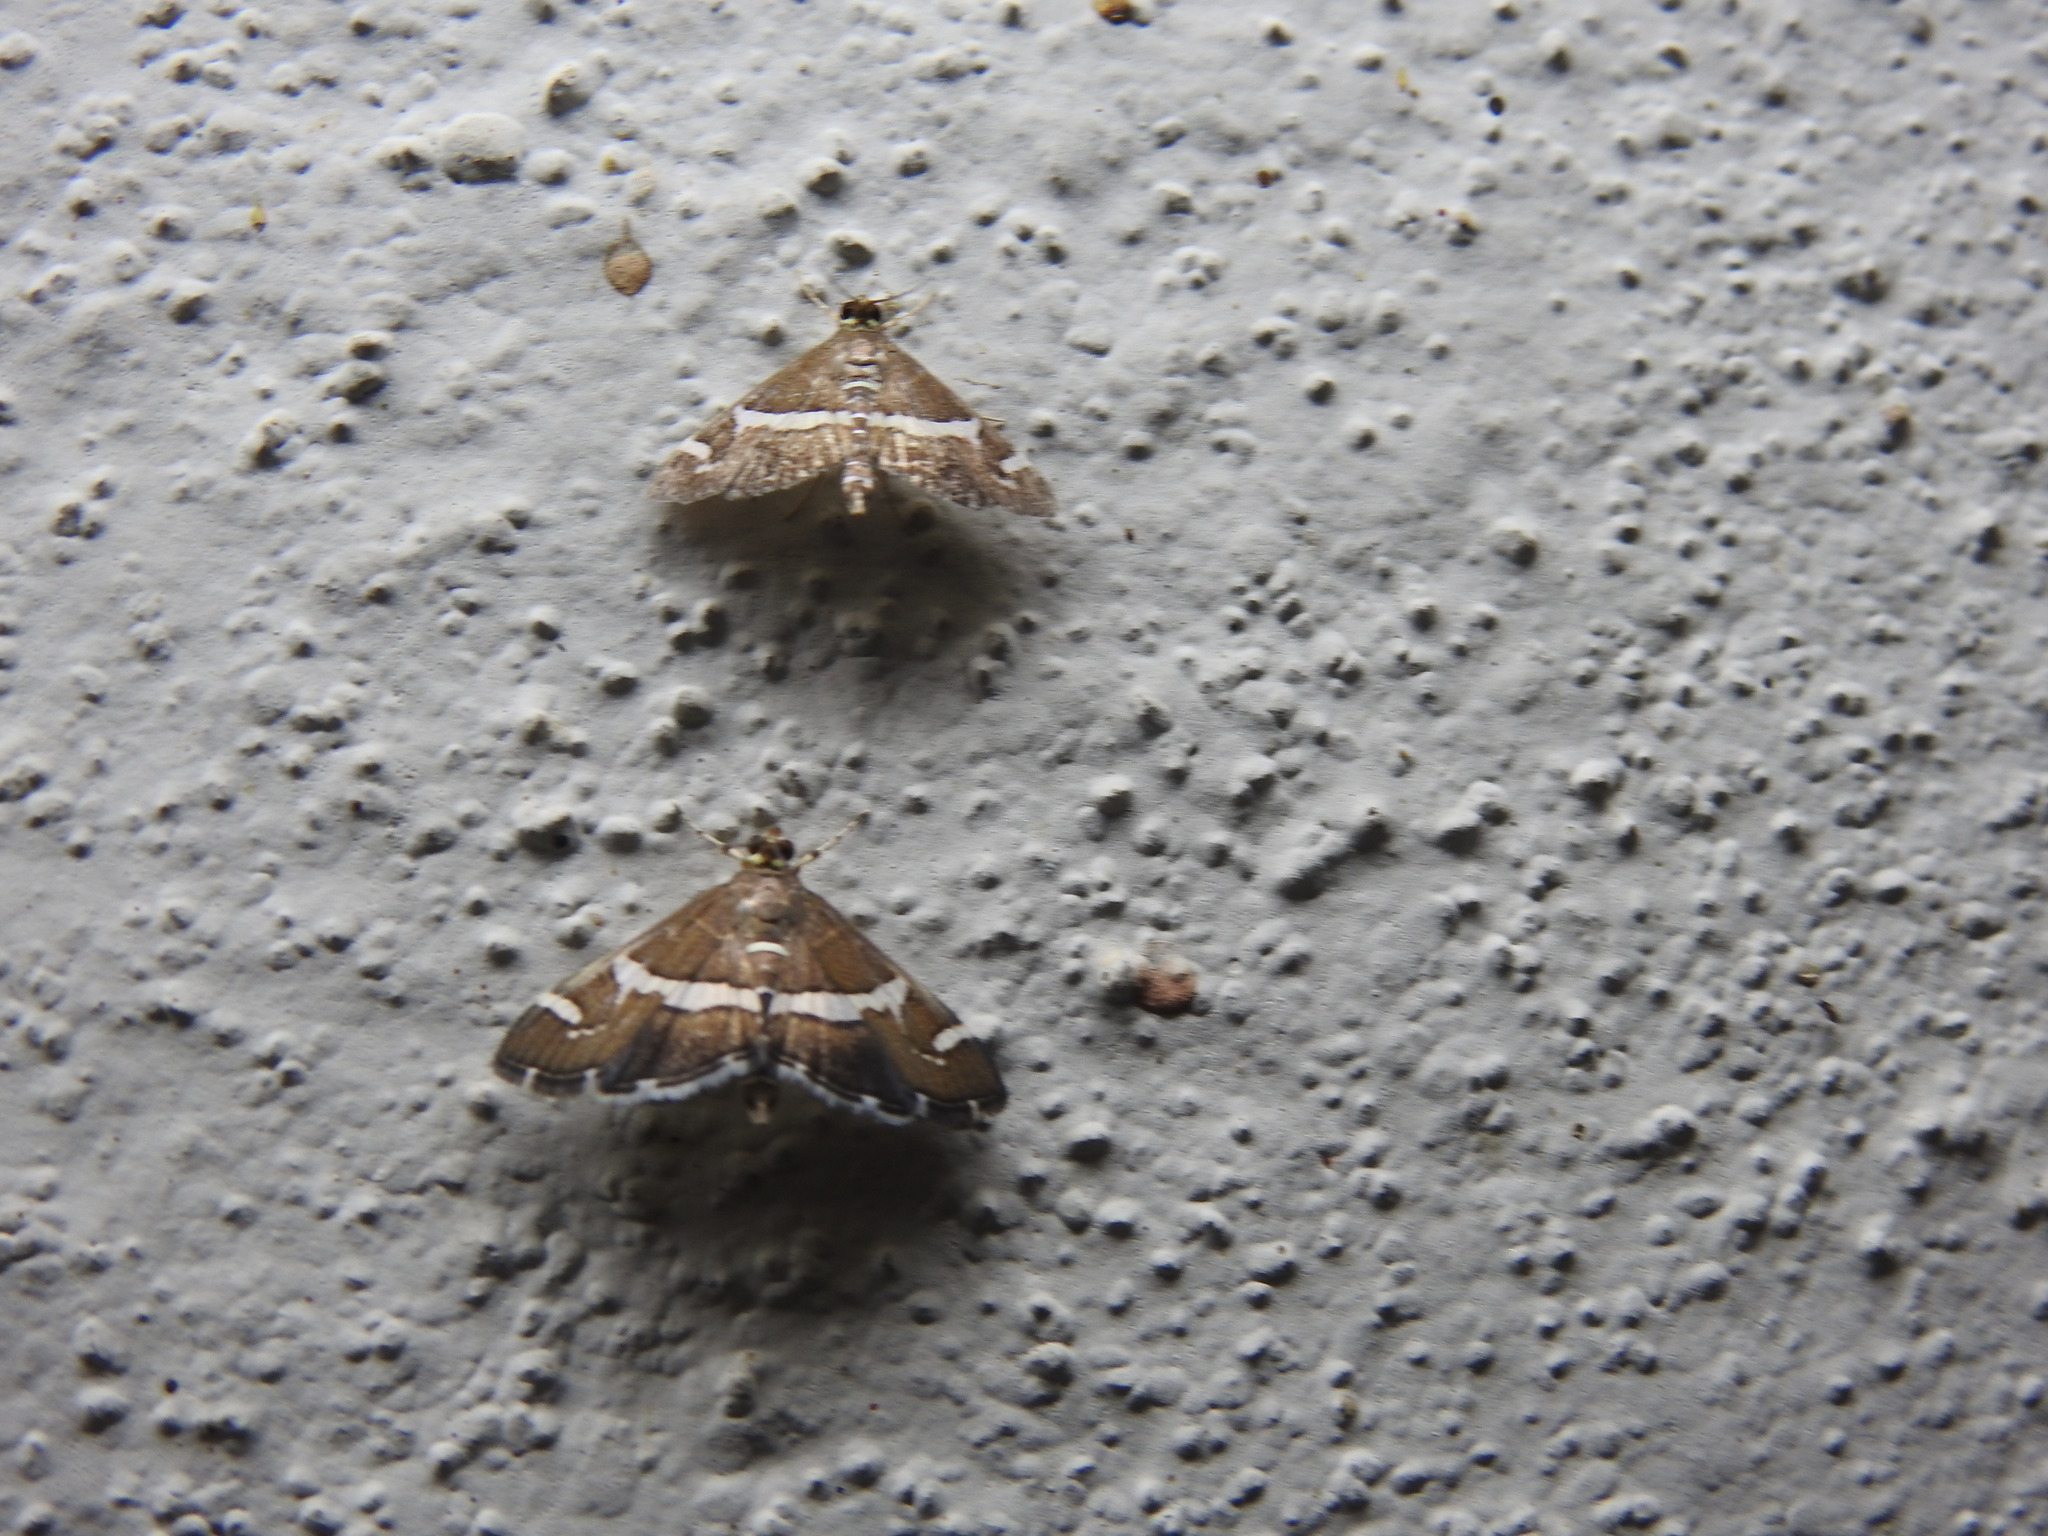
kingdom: Animalia
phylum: Arthropoda
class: Insecta
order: Lepidoptera
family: Crambidae
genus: Spoladea
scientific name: Spoladea recurvalis
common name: Beet webworm moth
